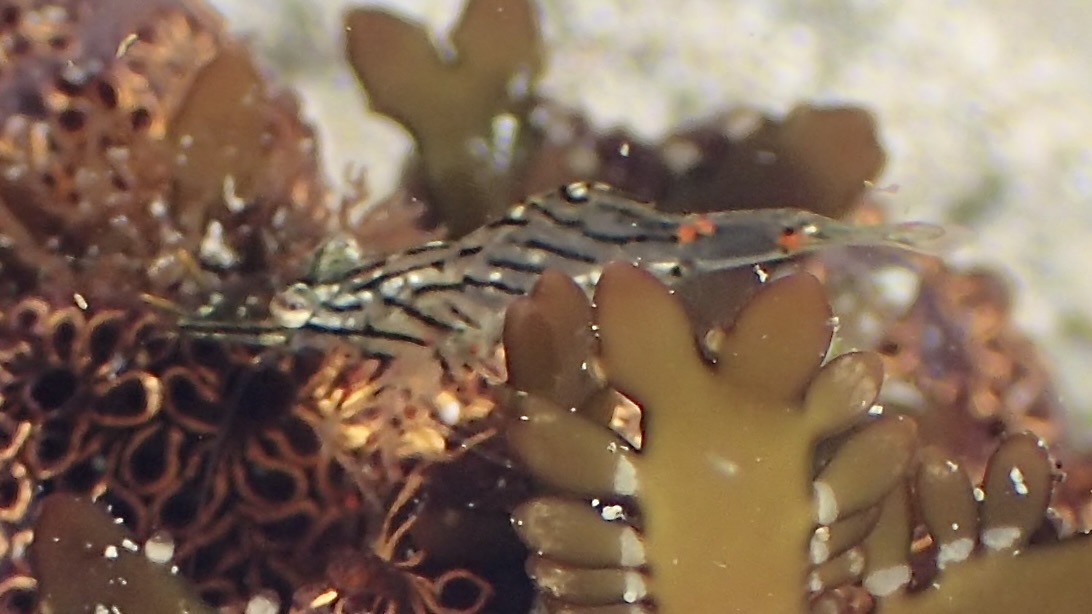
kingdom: Animalia
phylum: Arthropoda
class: Malacostraca
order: Decapoda
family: Palaemonidae
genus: Palaemon
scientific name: Palaemon ritteri
